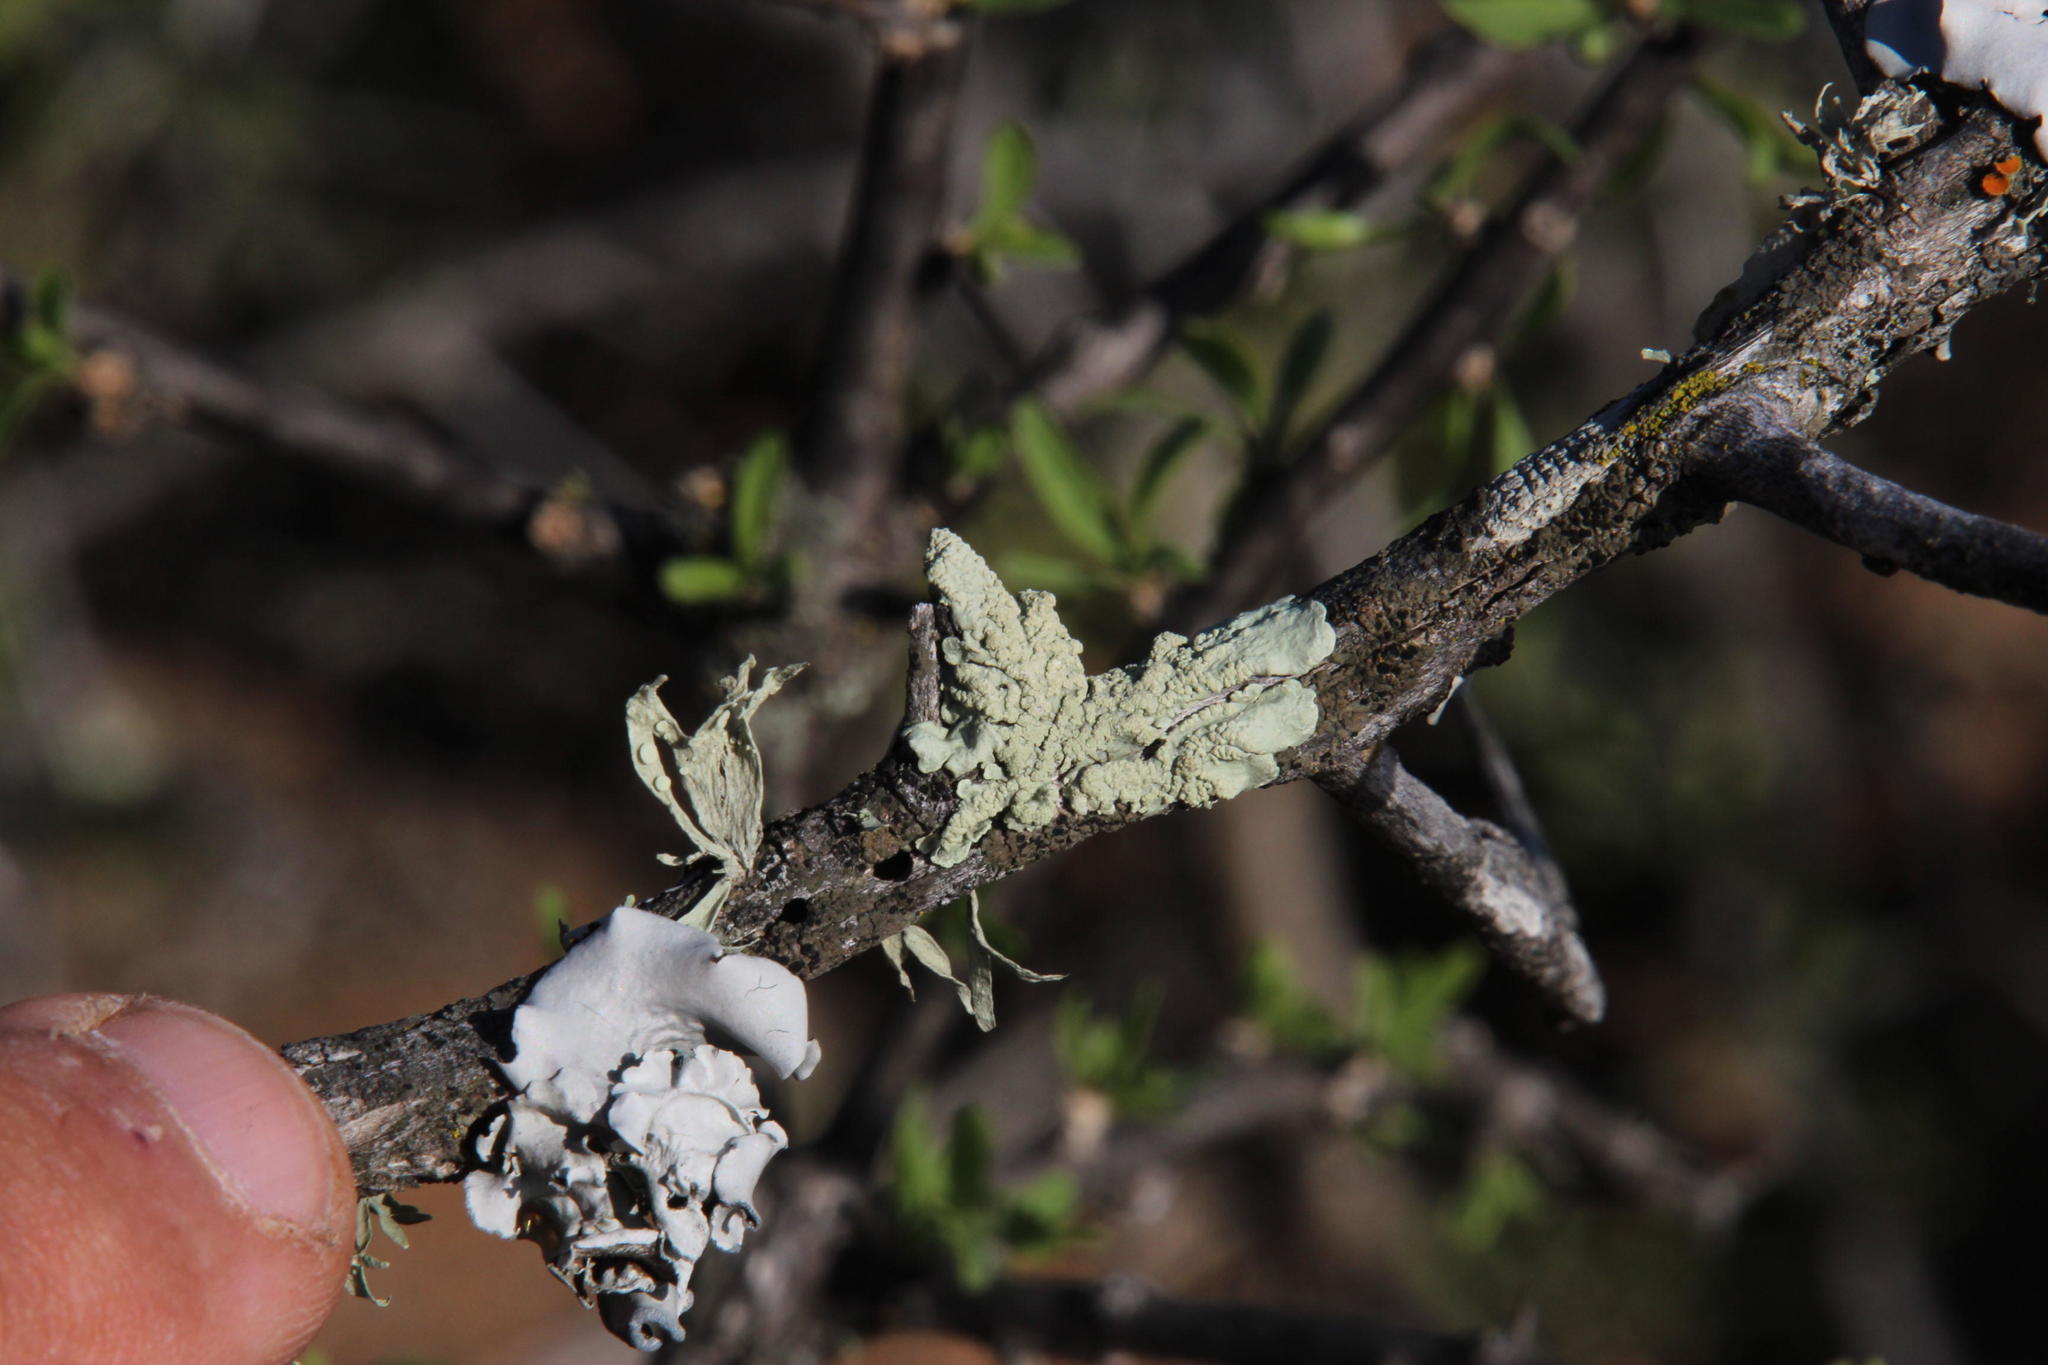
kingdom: Fungi
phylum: Ascomycota
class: Lecanoromycetes
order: Lecanorales
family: Parmeliaceae
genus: Flavoparmelia
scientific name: Flavoparmelia soredians
